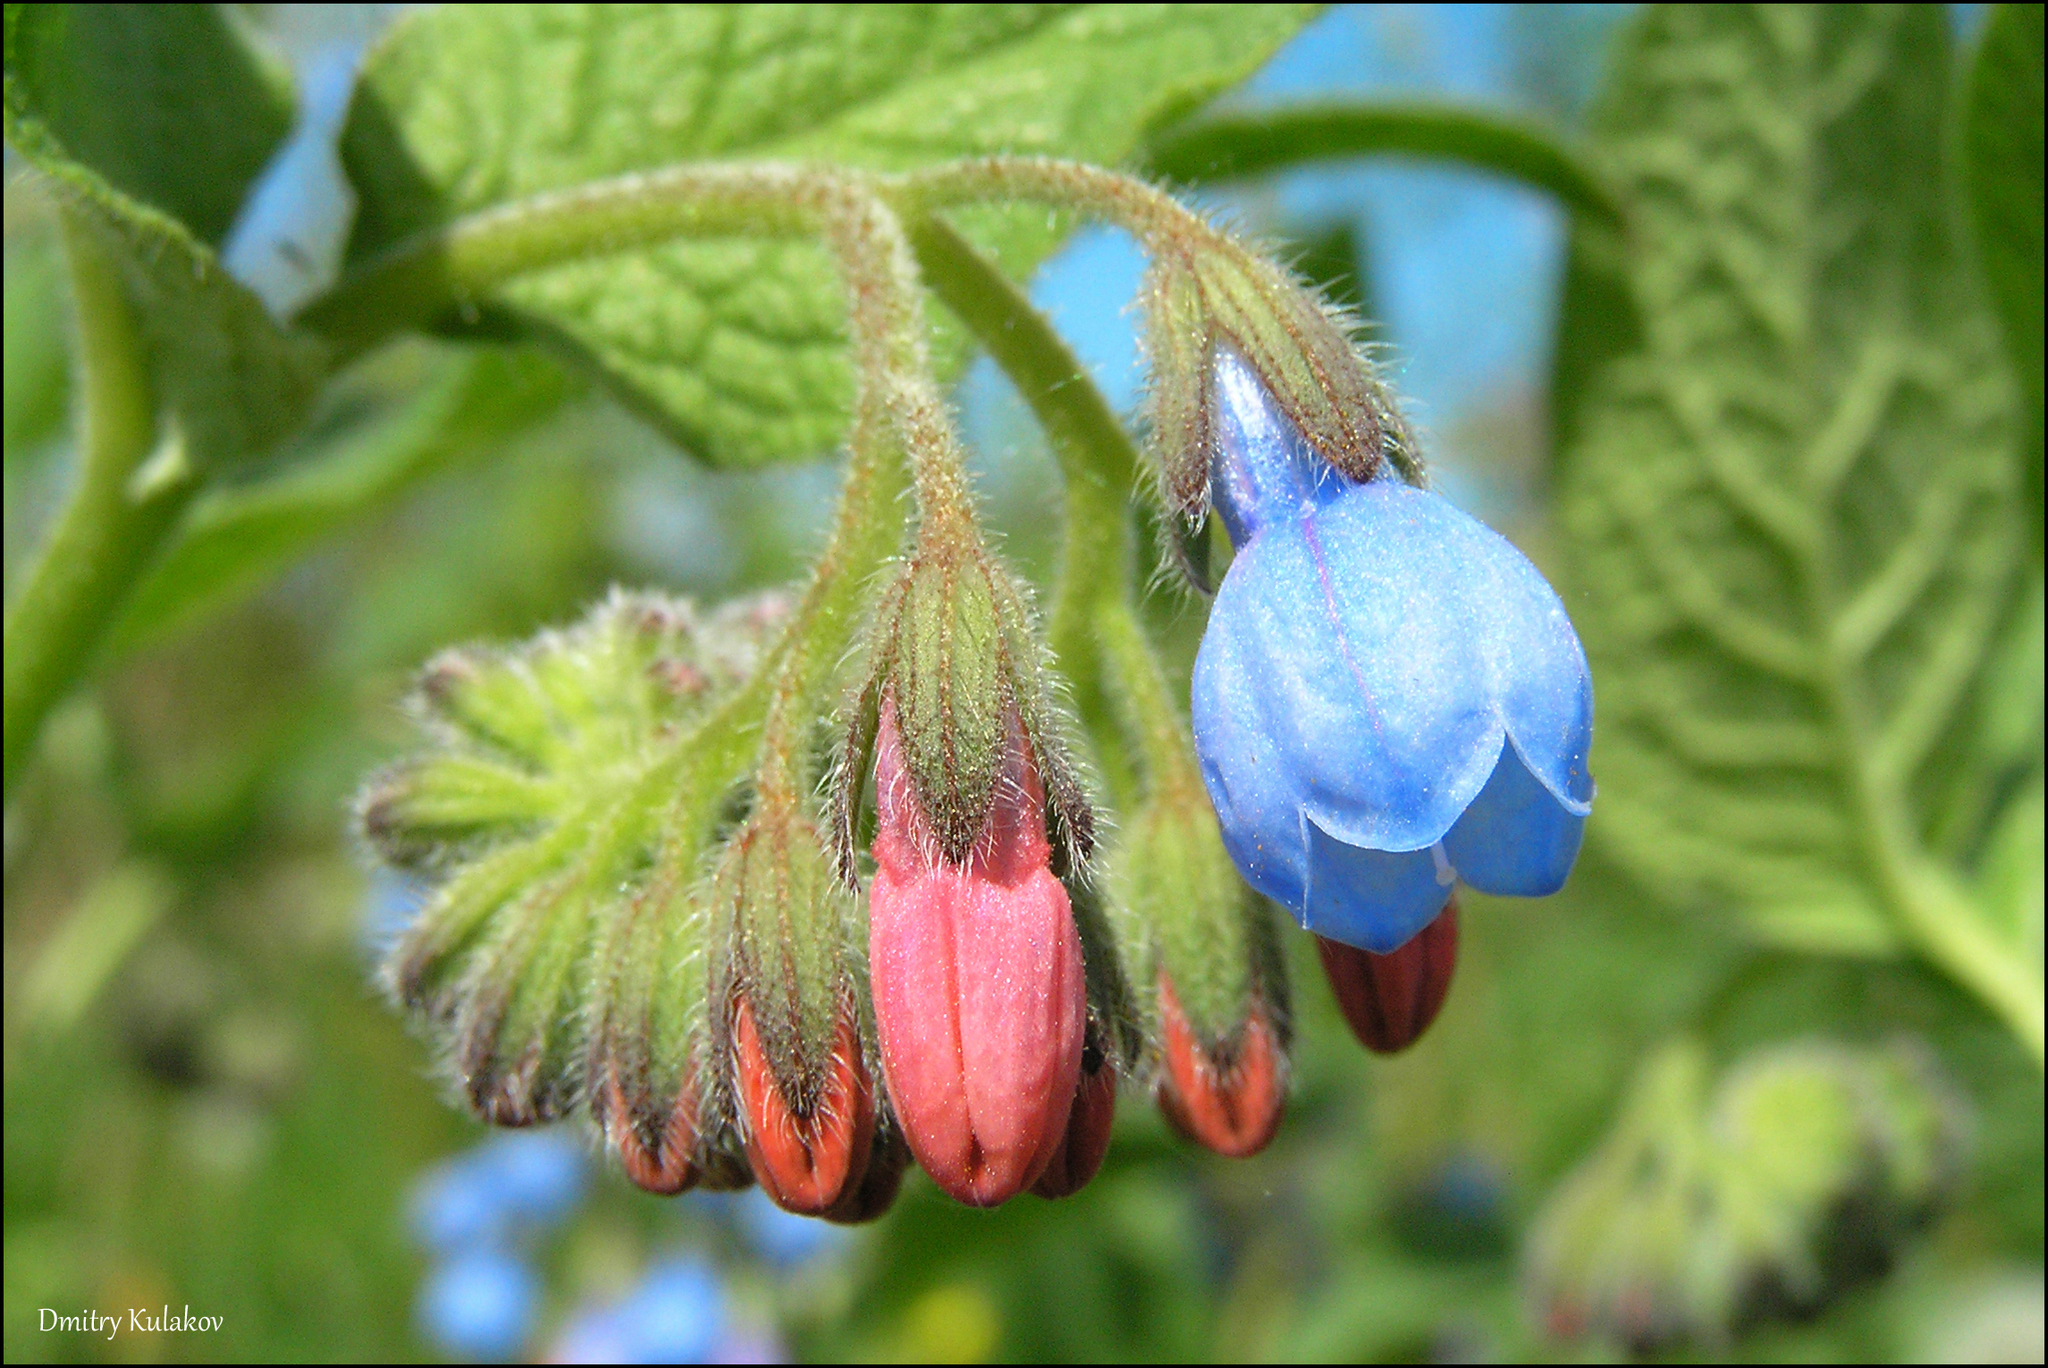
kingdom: Plantae
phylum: Tracheophyta
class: Magnoliopsida
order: Boraginales
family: Boraginaceae
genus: Symphytum
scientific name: Symphytum caucasicum
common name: Caucasian comfrey
